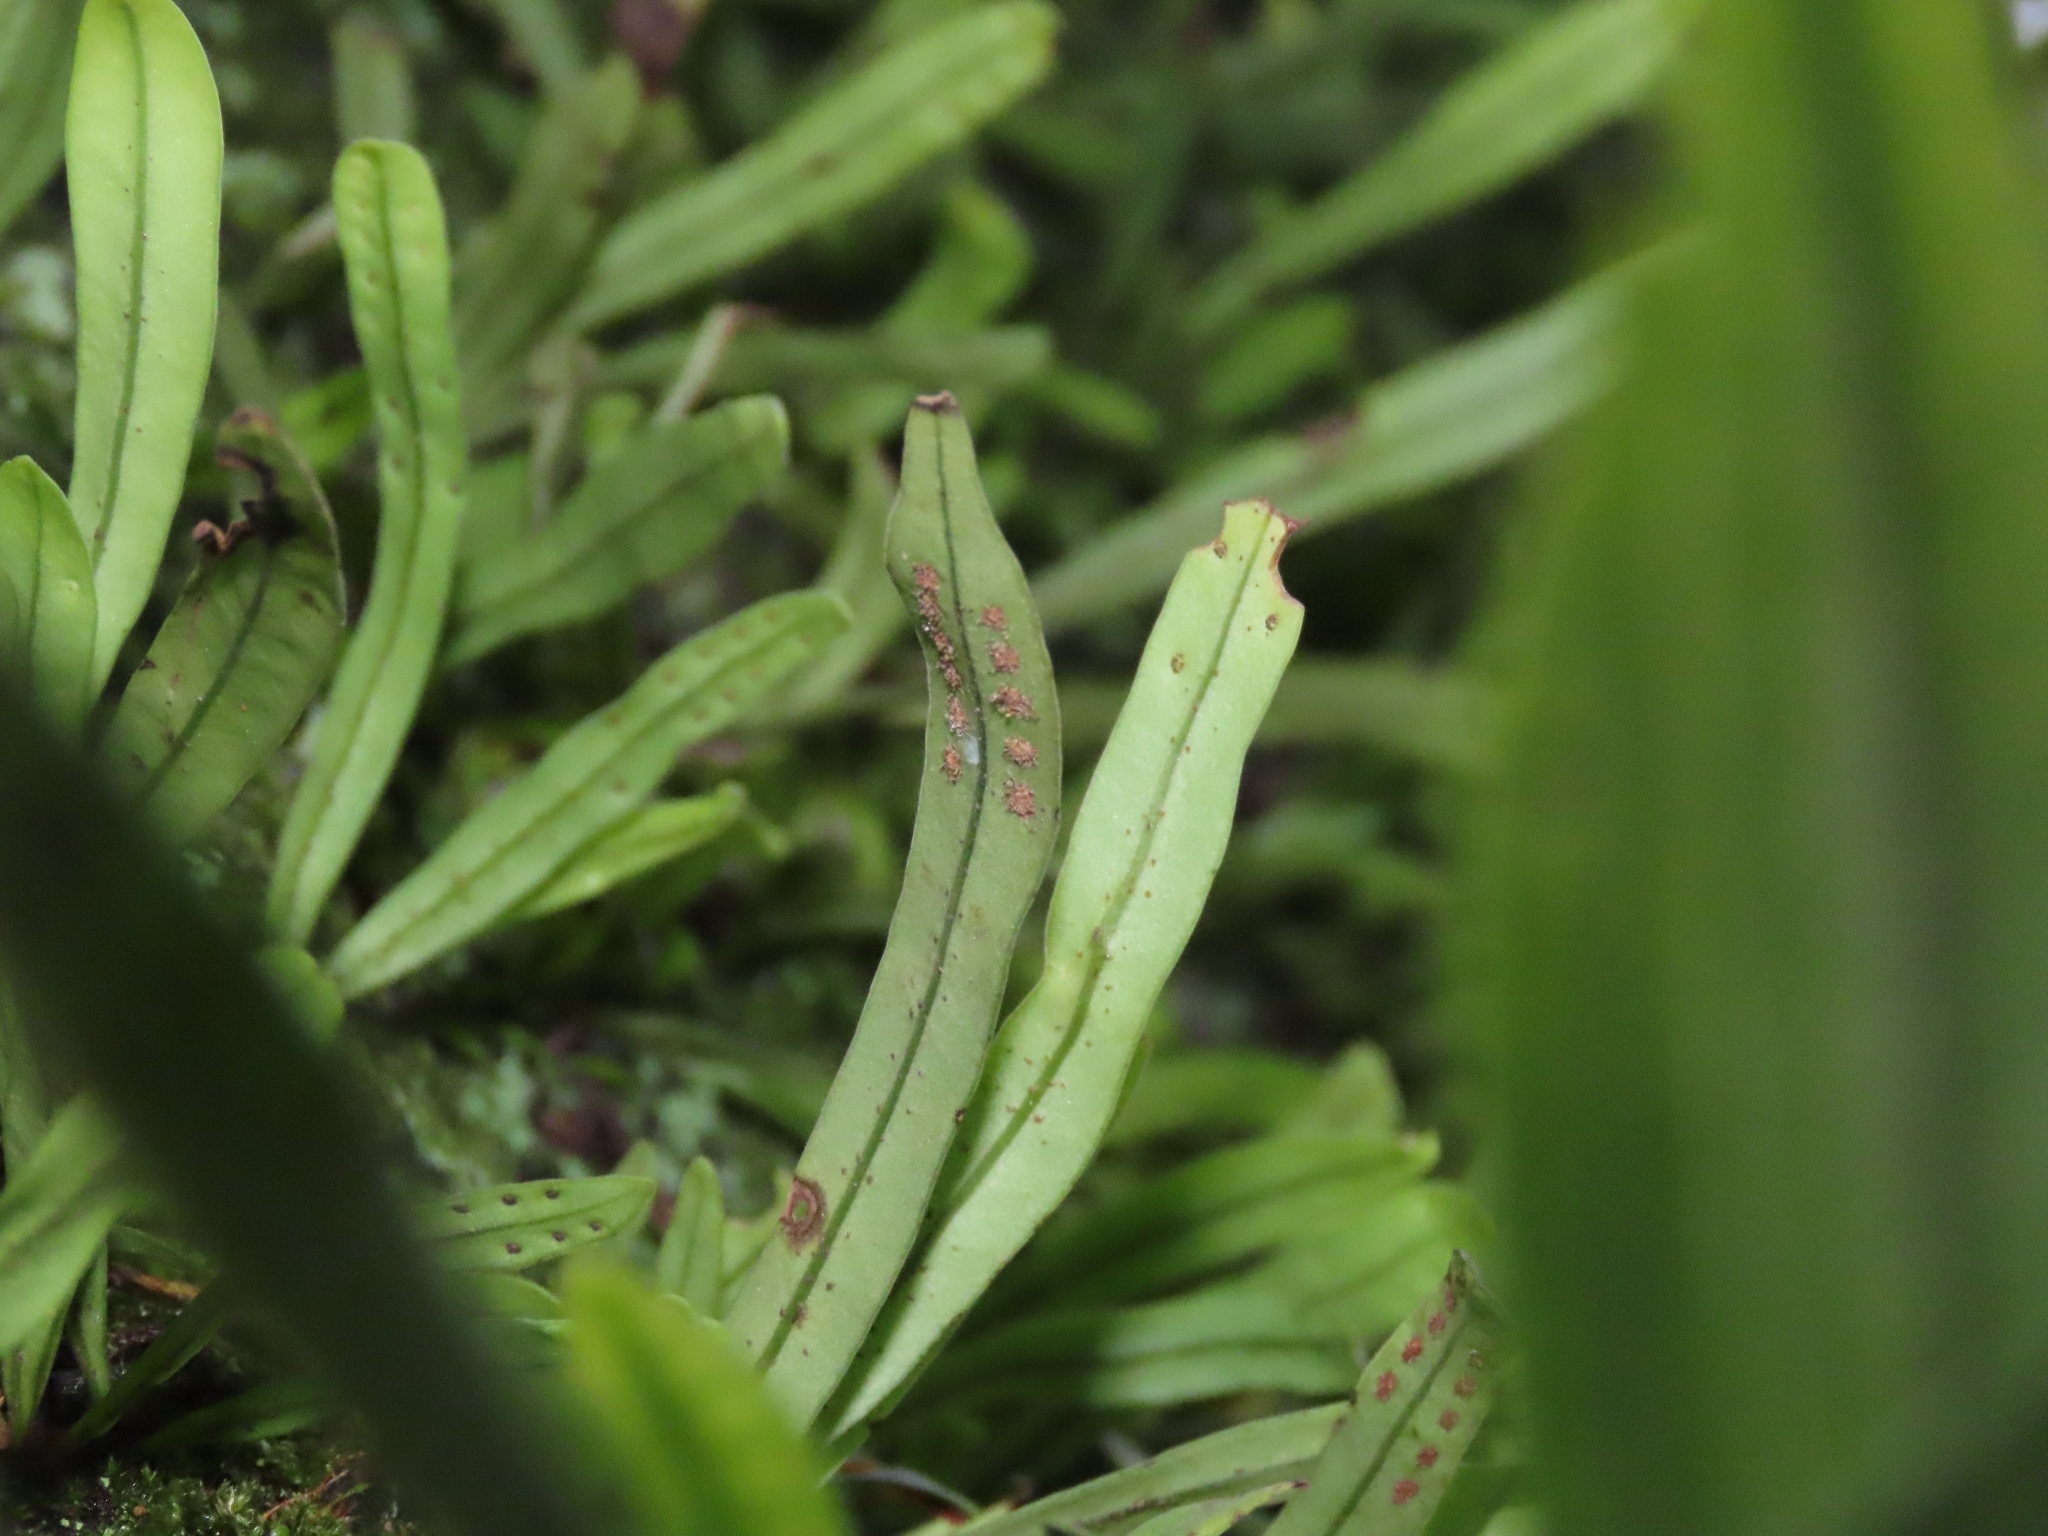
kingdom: Plantae
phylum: Tracheophyta
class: Polypodiopsida
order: Polypodiales
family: Polypodiaceae
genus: Lepisorus
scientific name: Lepisorus thunbergianus
